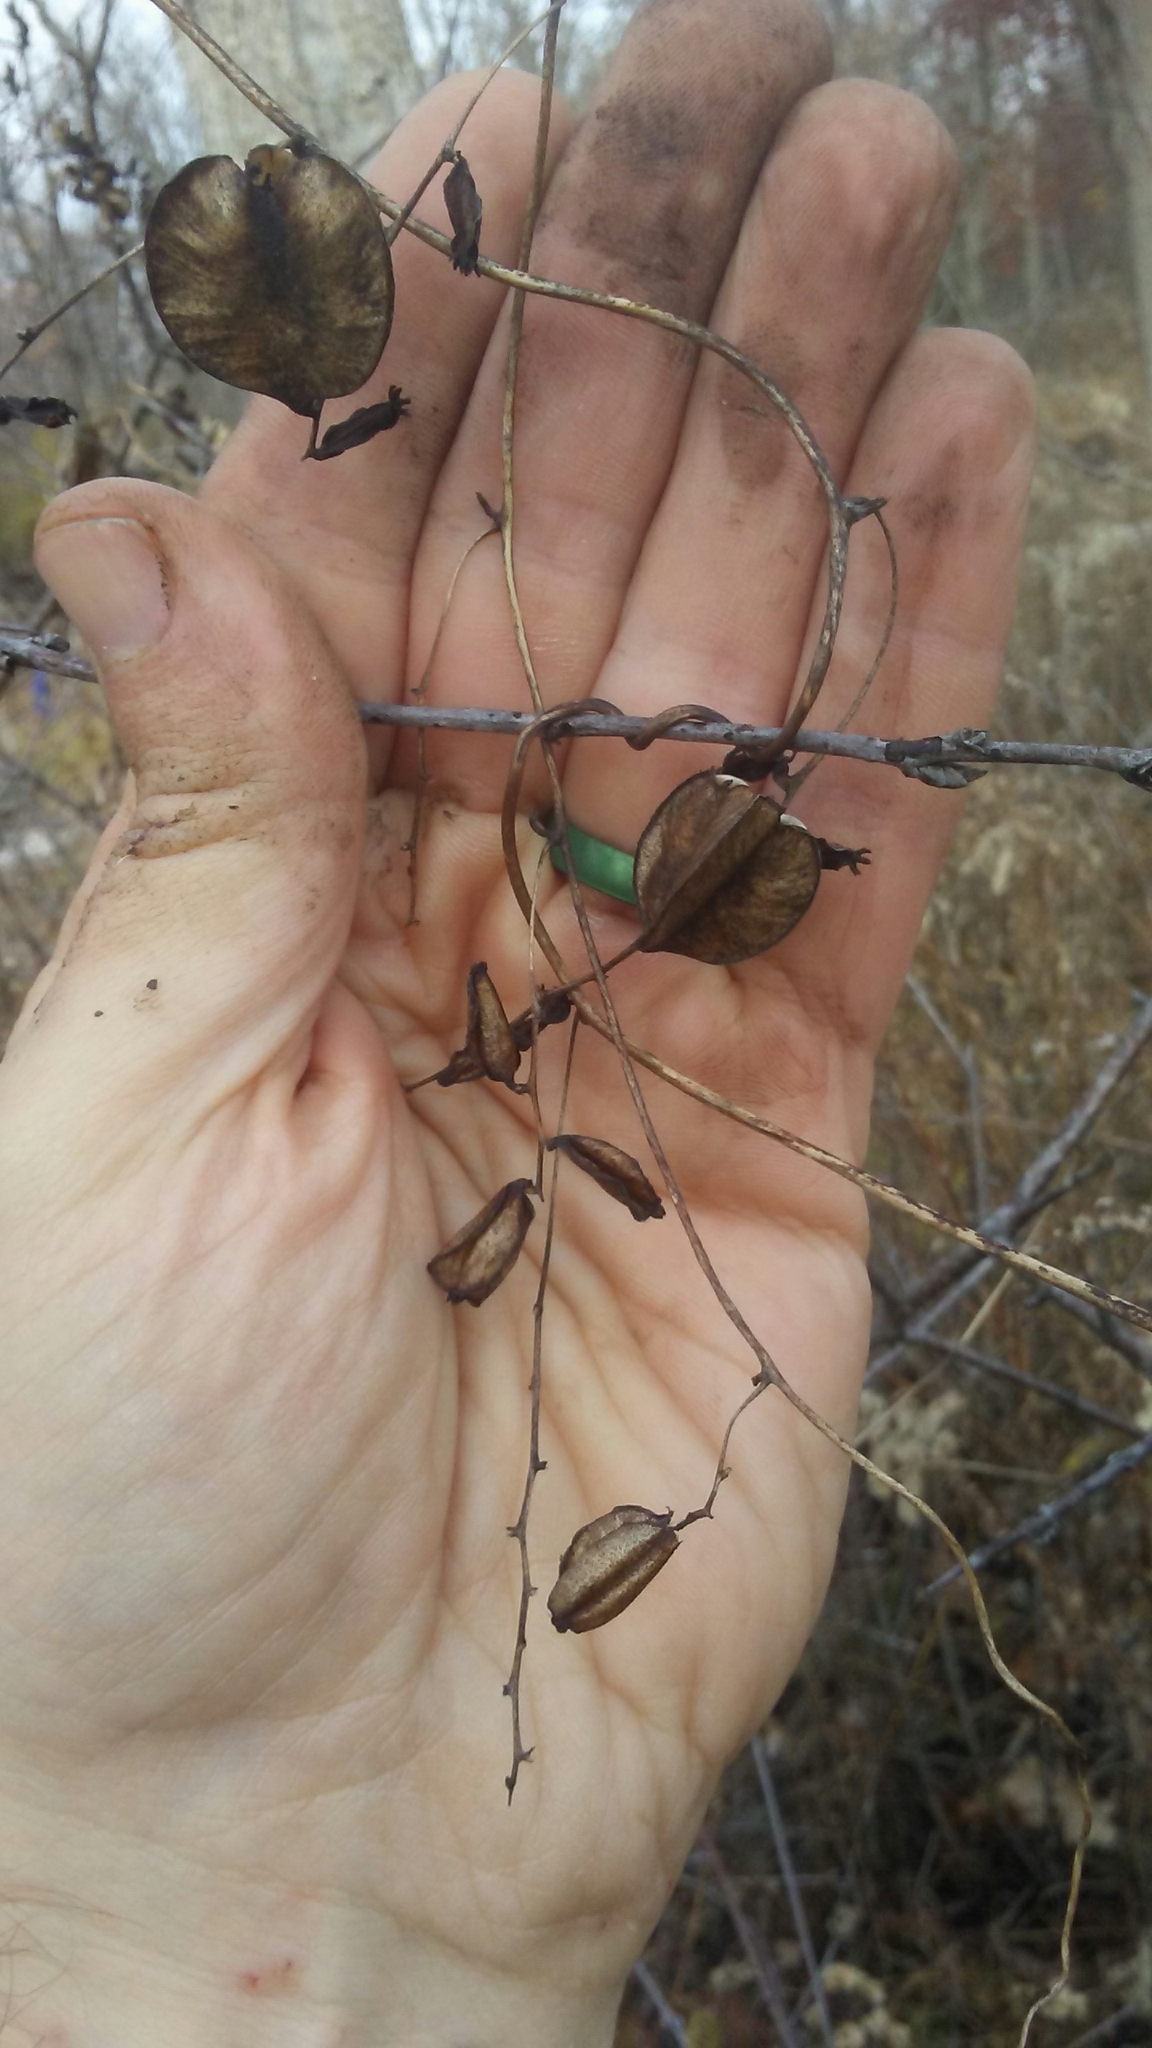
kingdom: Plantae
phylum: Tracheophyta
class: Liliopsida
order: Dioscoreales
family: Dioscoreaceae
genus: Dioscorea
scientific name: Dioscorea villosa
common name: Wild yam
